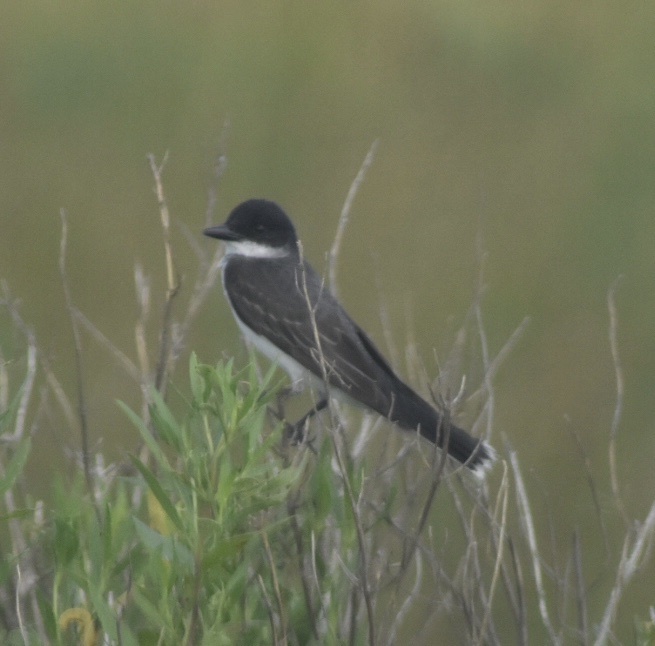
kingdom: Animalia
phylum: Chordata
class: Aves
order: Passeriformes
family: Tyrannidae
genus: Tyrannus
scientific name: Tyrannus tyrannus
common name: Eastern kingbird
